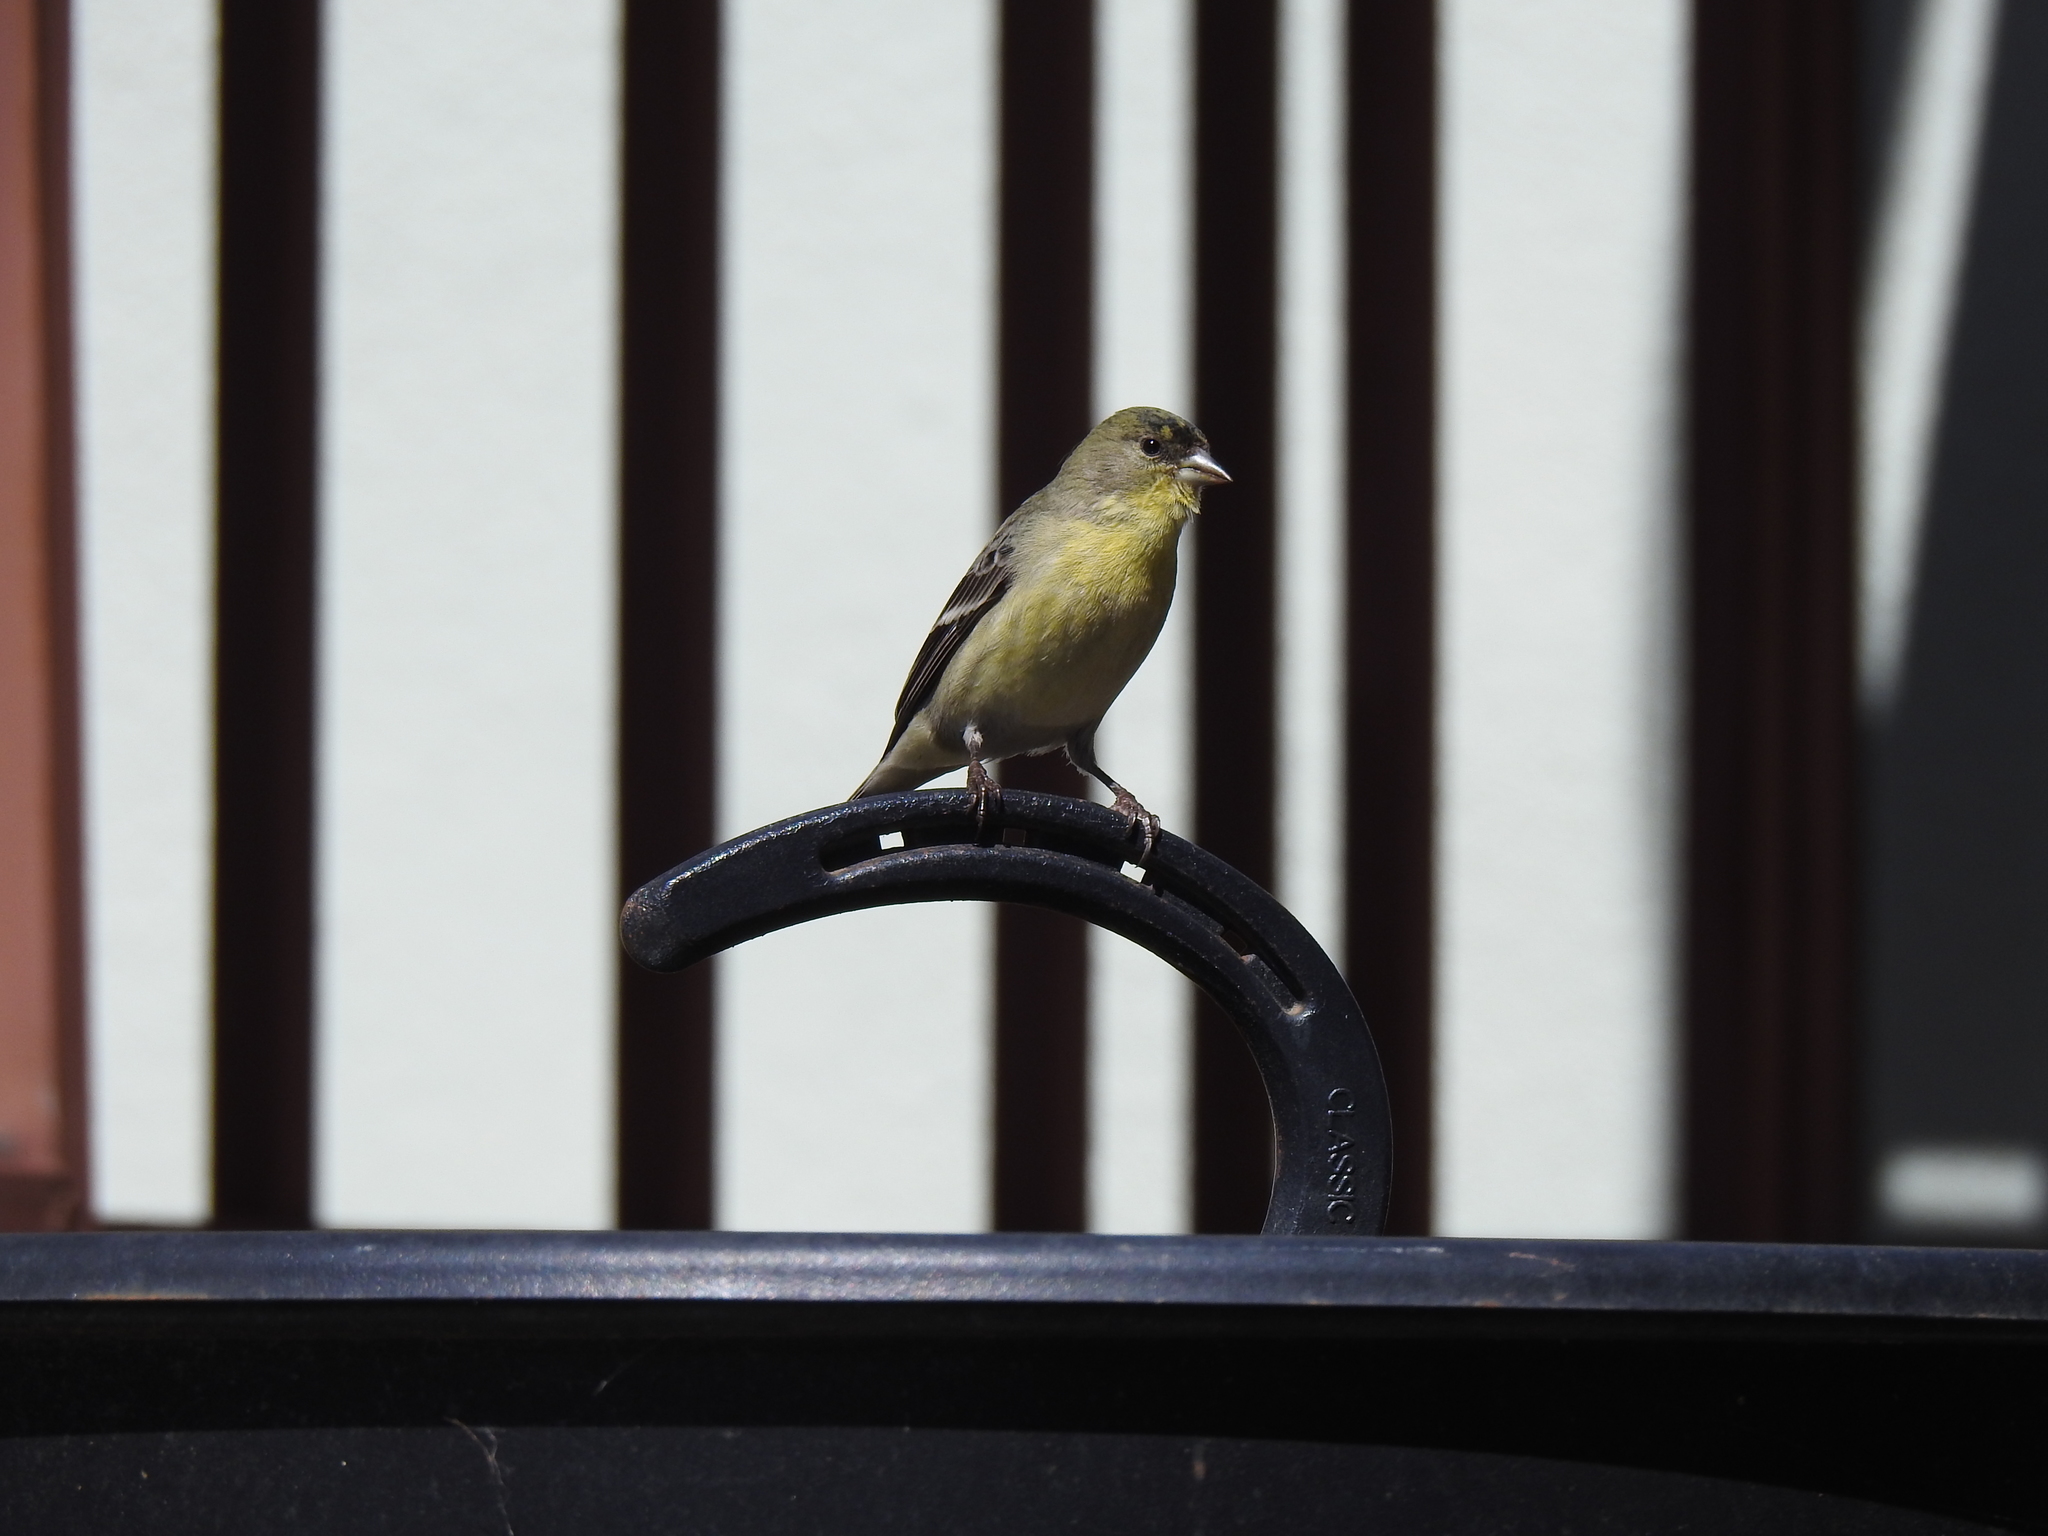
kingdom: Animalia
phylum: Chordata
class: Aves
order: Passeriformes
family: Fringillidae
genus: Spinus
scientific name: Spinus psaltria
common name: Lesser goldfinch
